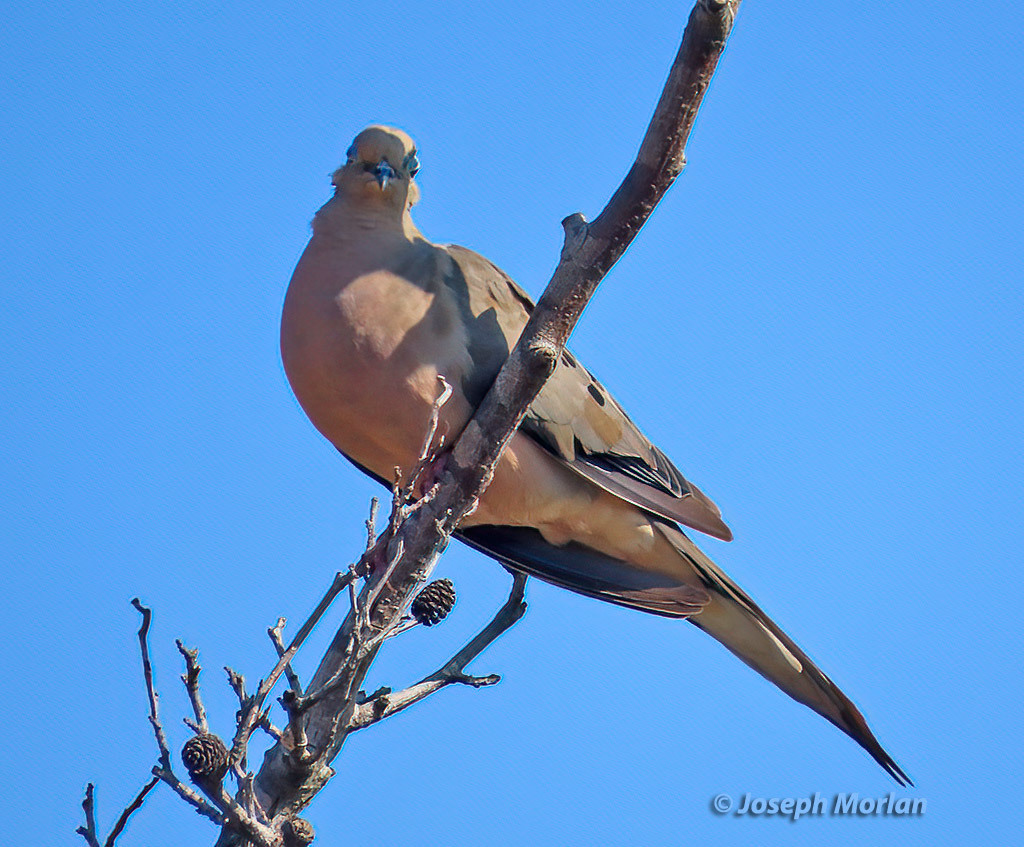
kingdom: Animalia
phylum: Chordata
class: Aves
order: Columbiformes
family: Columbidae
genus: Zenaida
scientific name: Zenaida macroura
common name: Mourning dove
